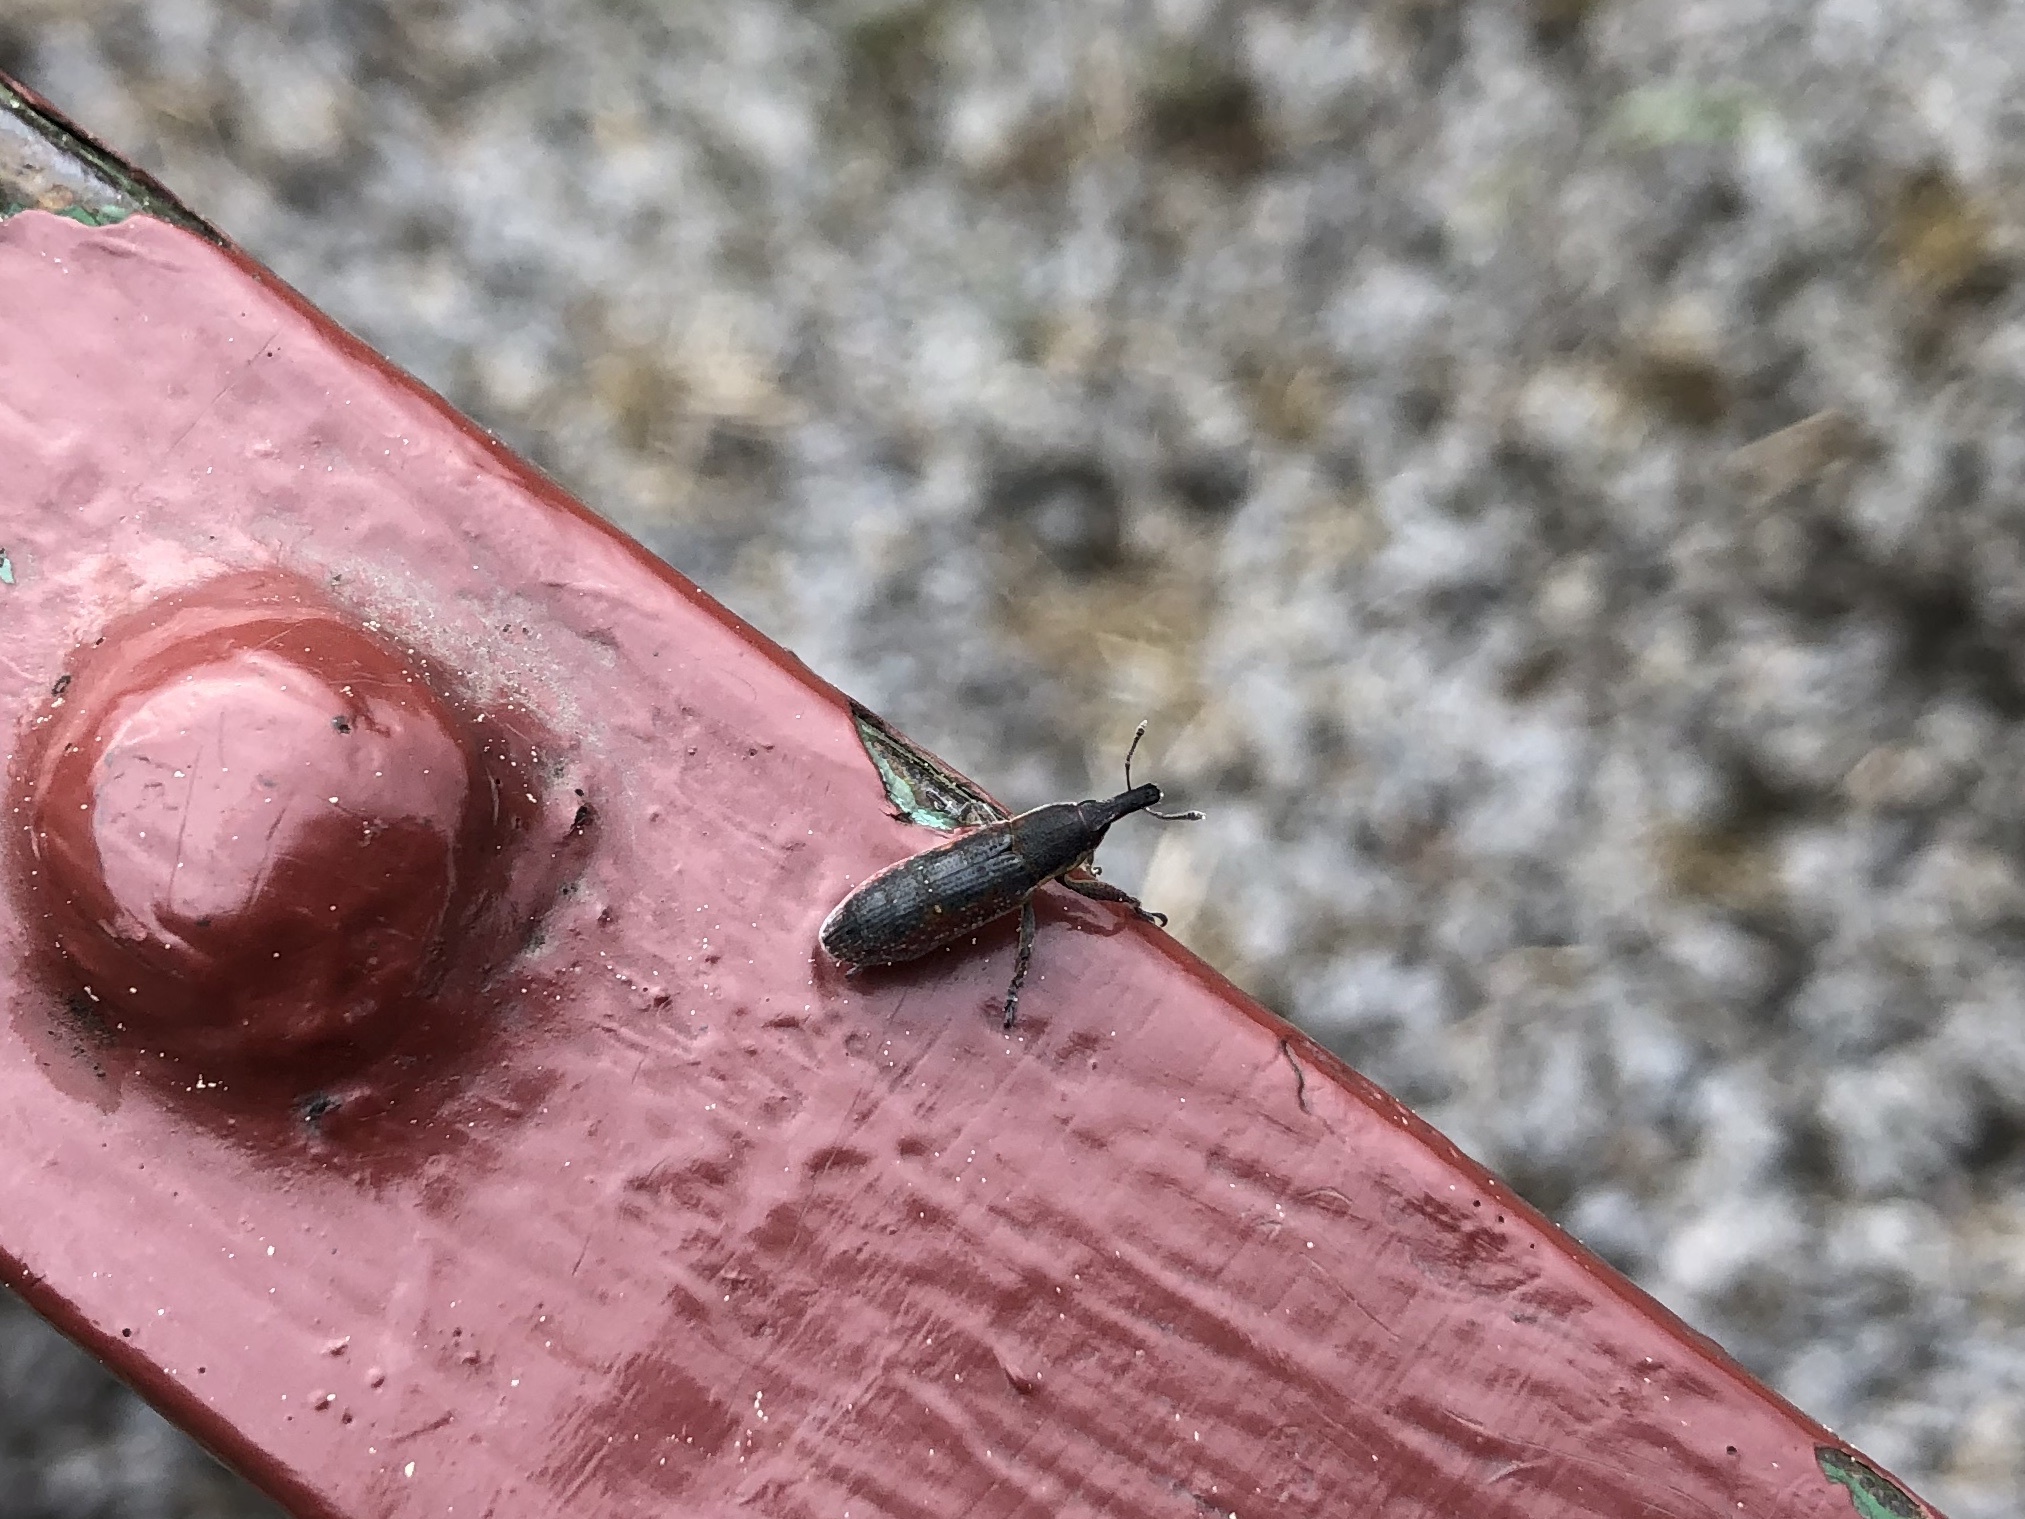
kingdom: Animalia
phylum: Arthropoda
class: Insecta
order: Coleoptera
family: Curculionidae
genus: Lixus
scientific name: Lixus vilis
